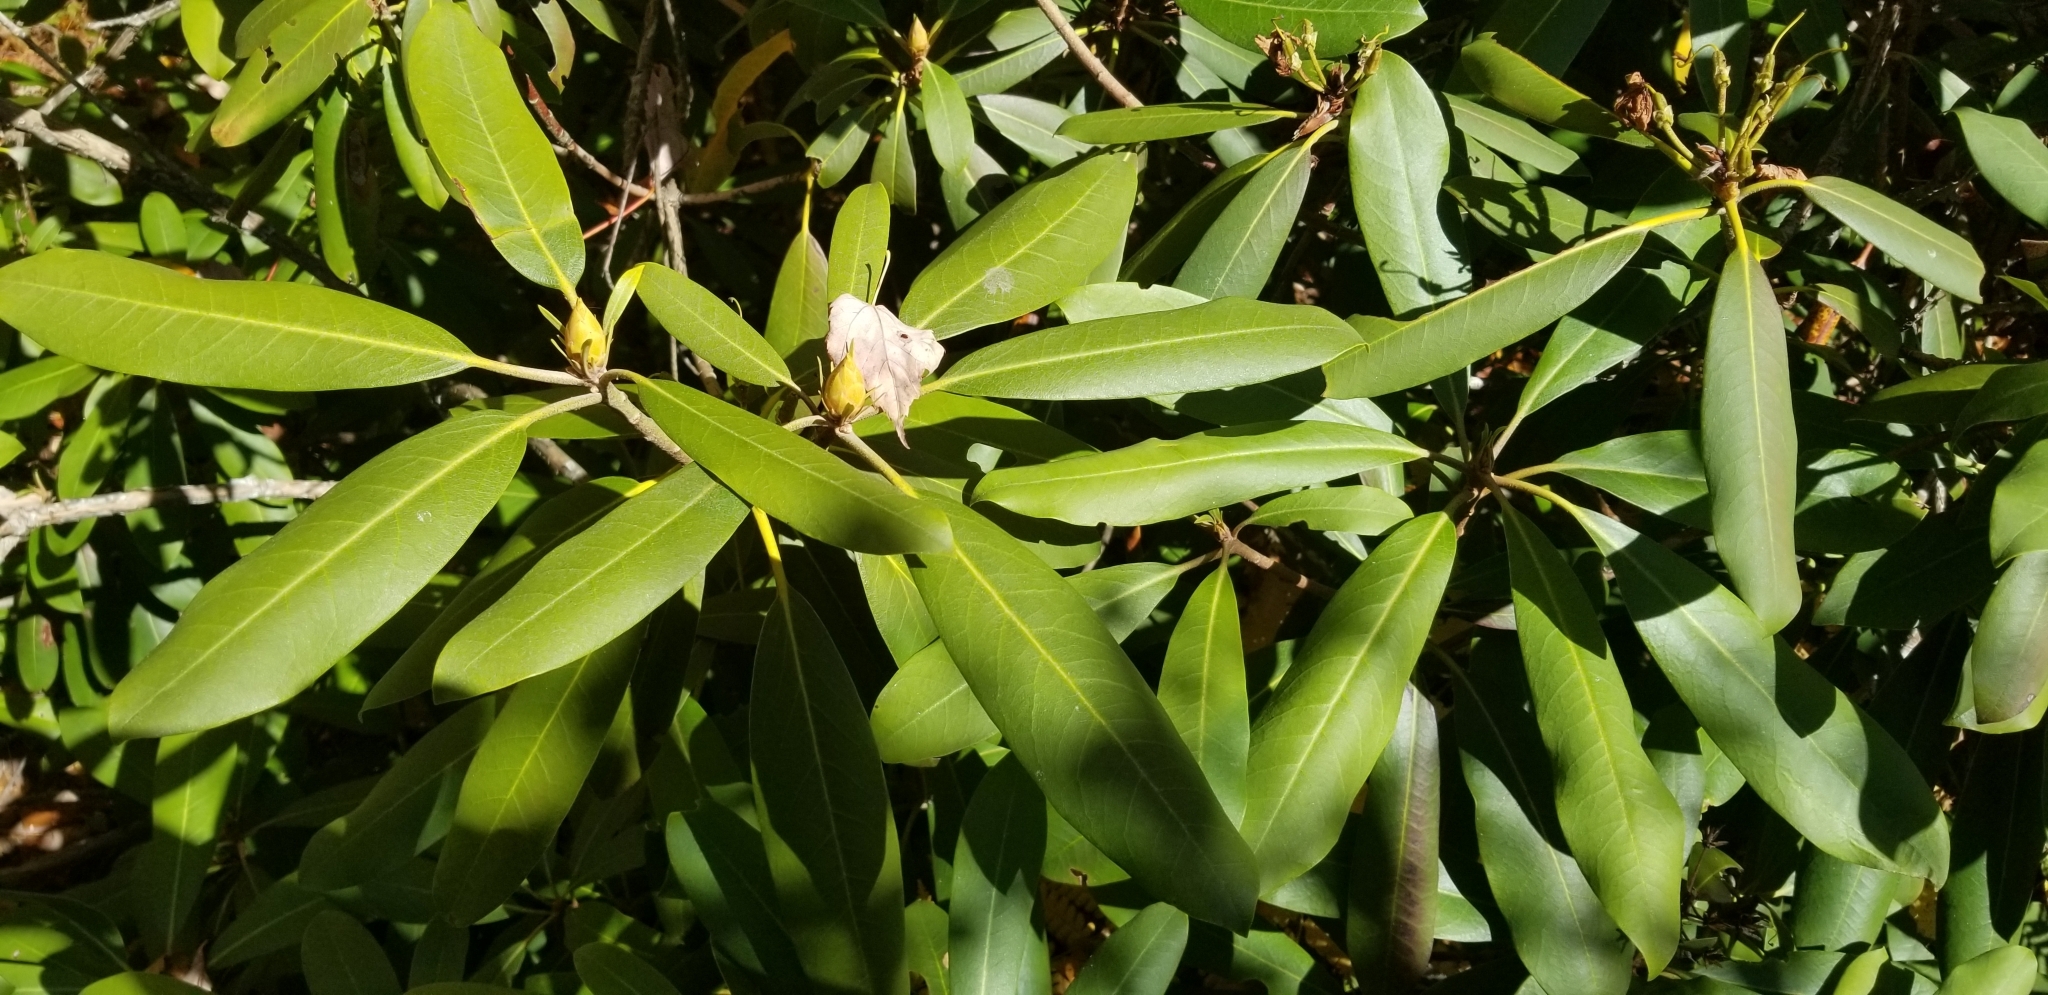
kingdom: Plantae
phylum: Tracheophyta
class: Magnoliopsida
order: Ericales
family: Ericaceae
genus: Rhododendron
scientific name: Rhododendron maximum
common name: Great rhododendron
